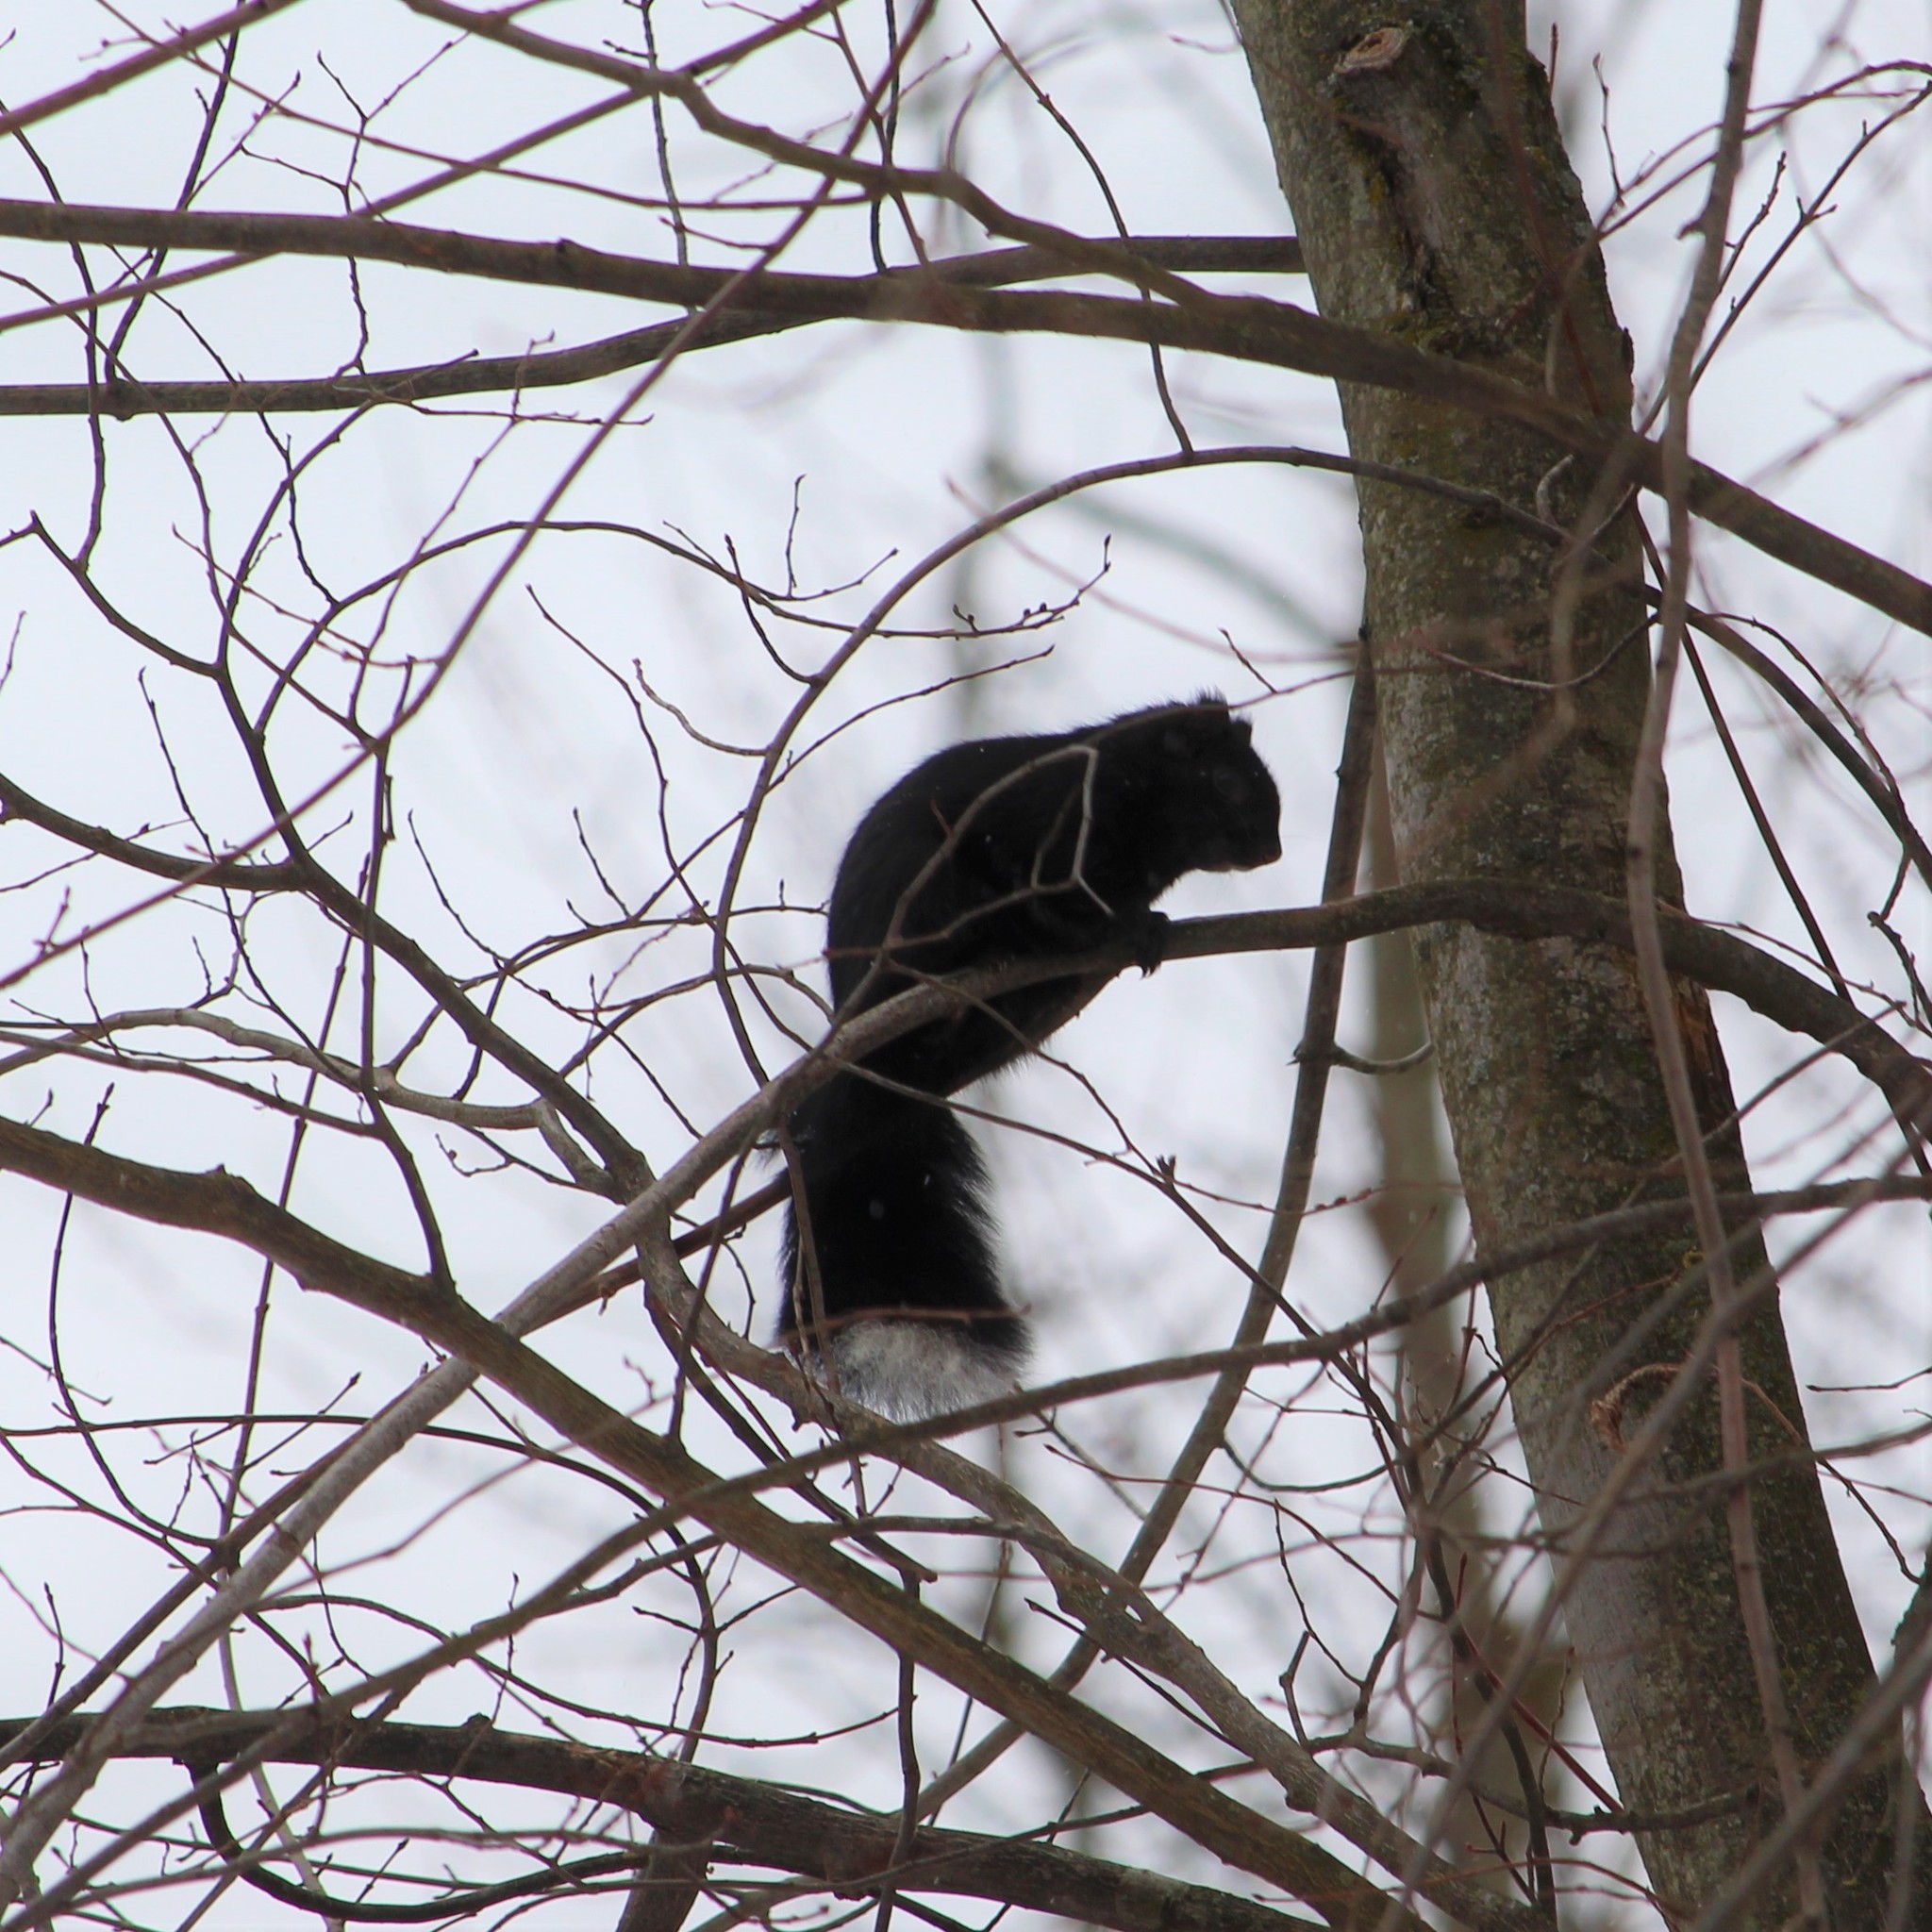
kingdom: Animalia
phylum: Chordata
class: Mammalia
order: Rodentia
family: Sciuridae
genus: Sciurus
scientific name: Sciurus carolinensis
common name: Eastern gray squirrel
